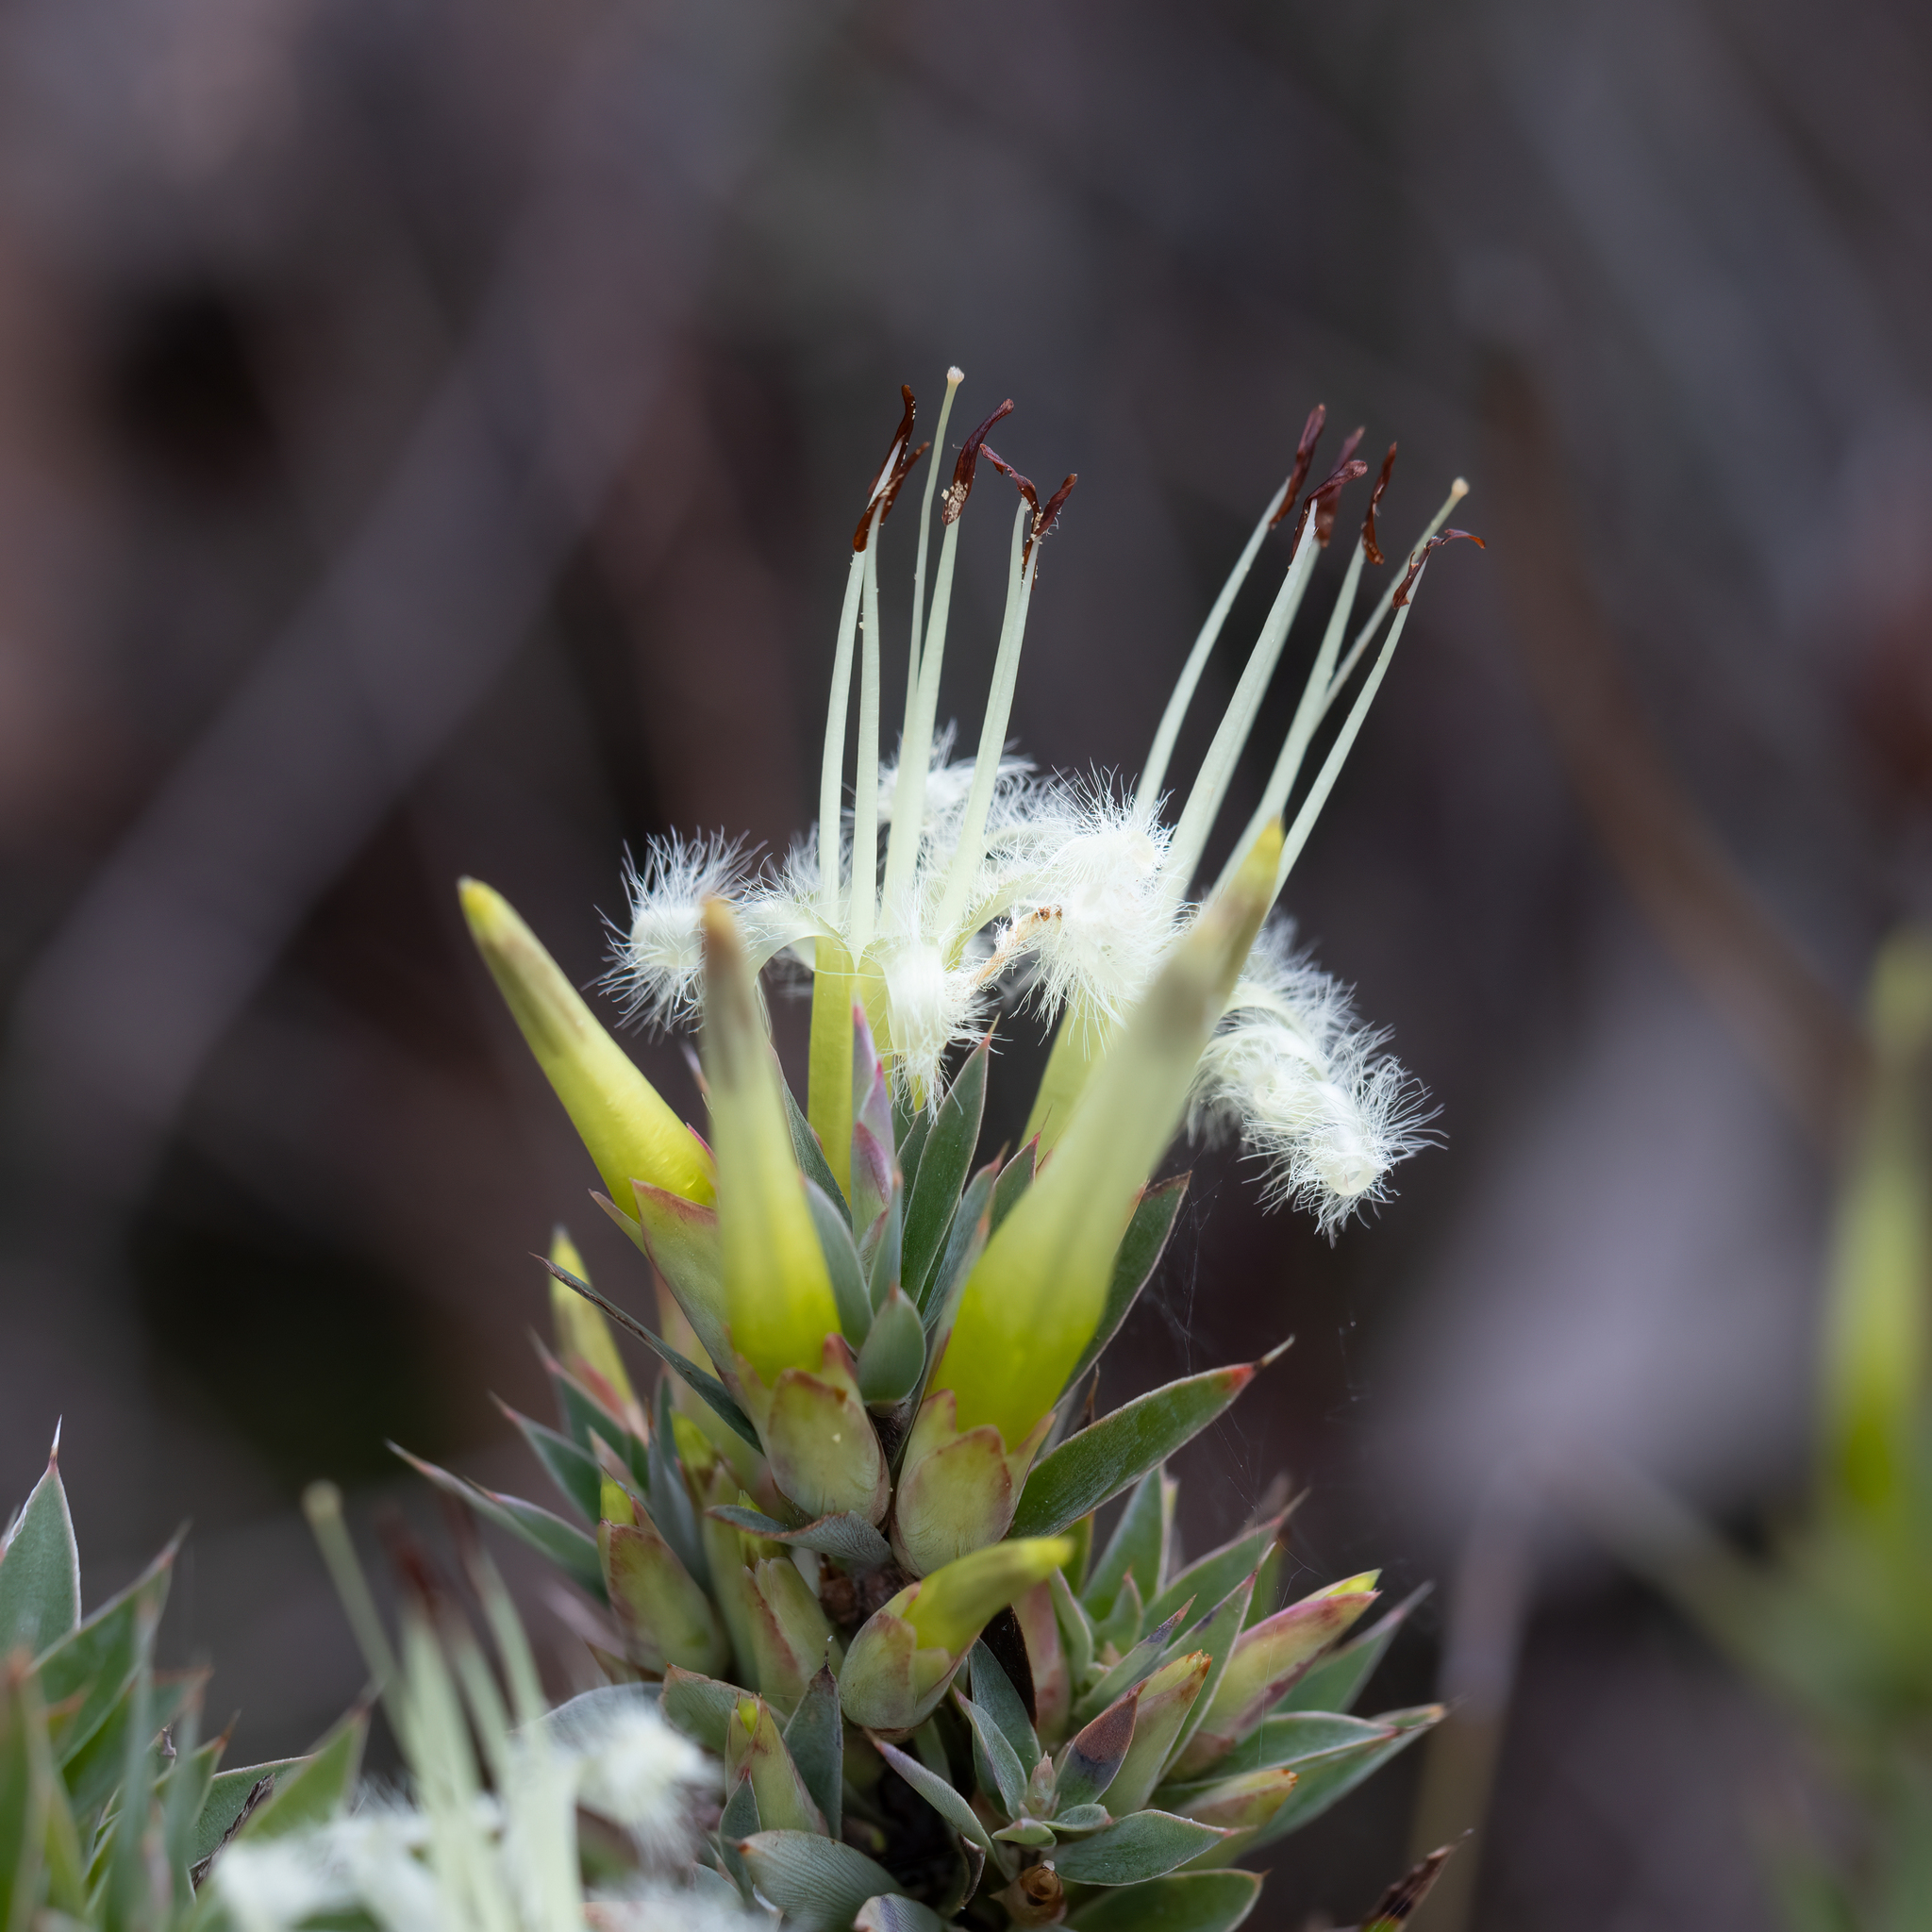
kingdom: Plantae
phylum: Tracheophyta
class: Magnoliopsida
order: Ericales
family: Ericaceae
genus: Styphelia
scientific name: Styphelia adscendens
